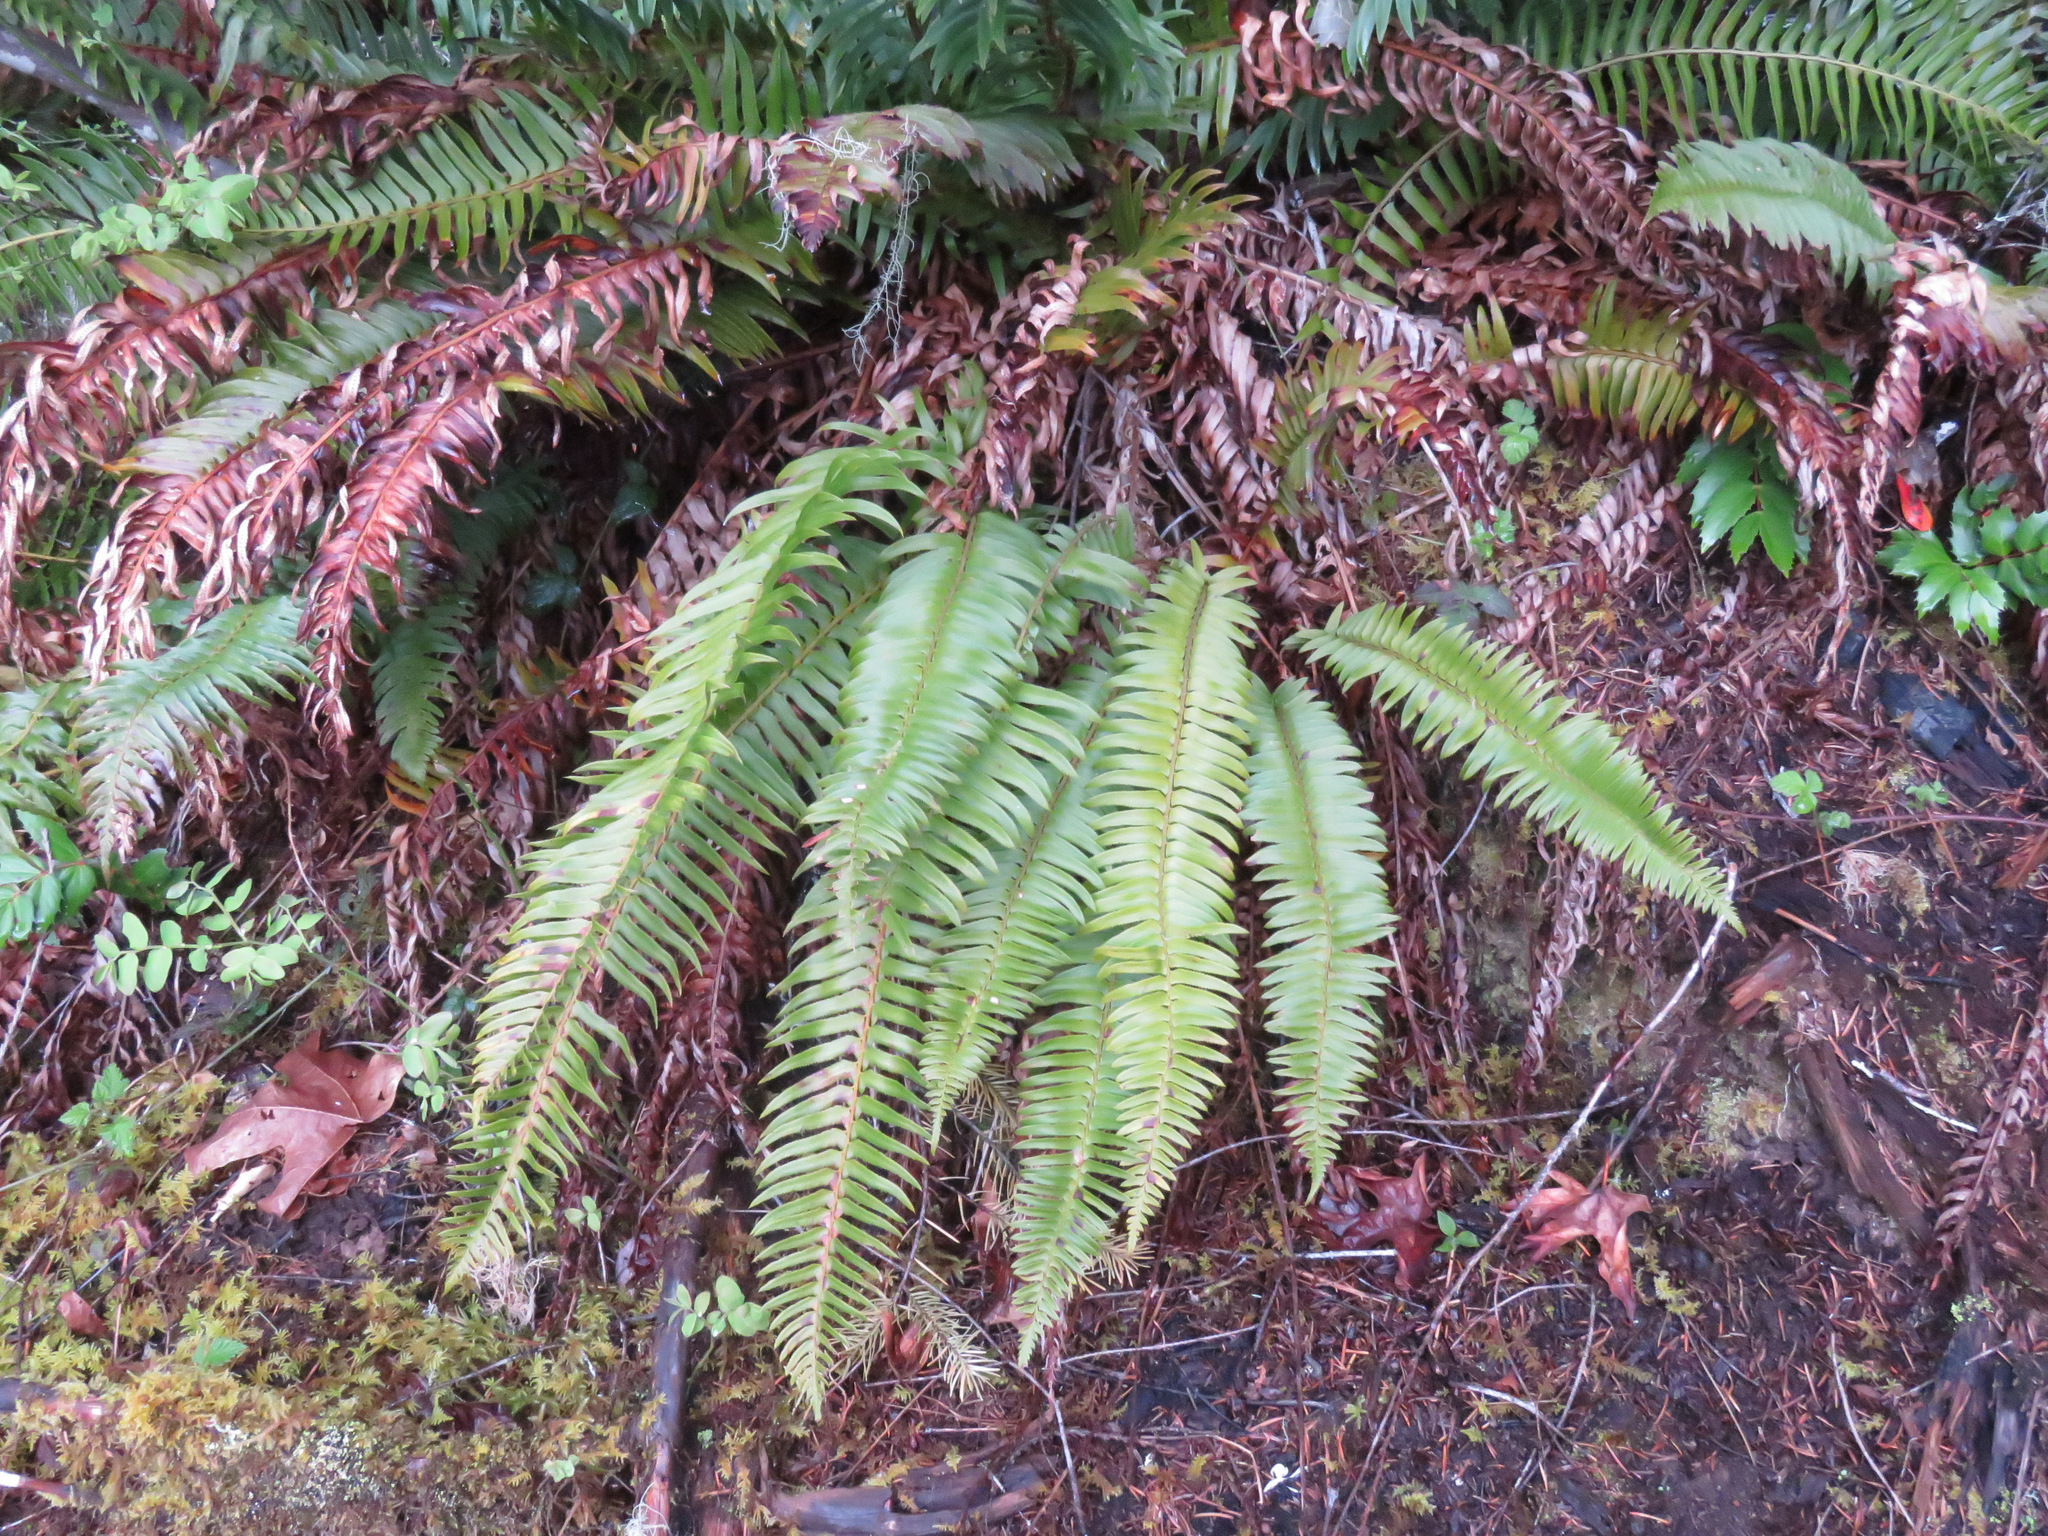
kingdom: Plantae
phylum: Tracheophyta
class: Polypodiopsida
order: Polypodiales
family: Dryopteridaceae
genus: Polystichum
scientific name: Polystichum munitum
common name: Western sword-fern
